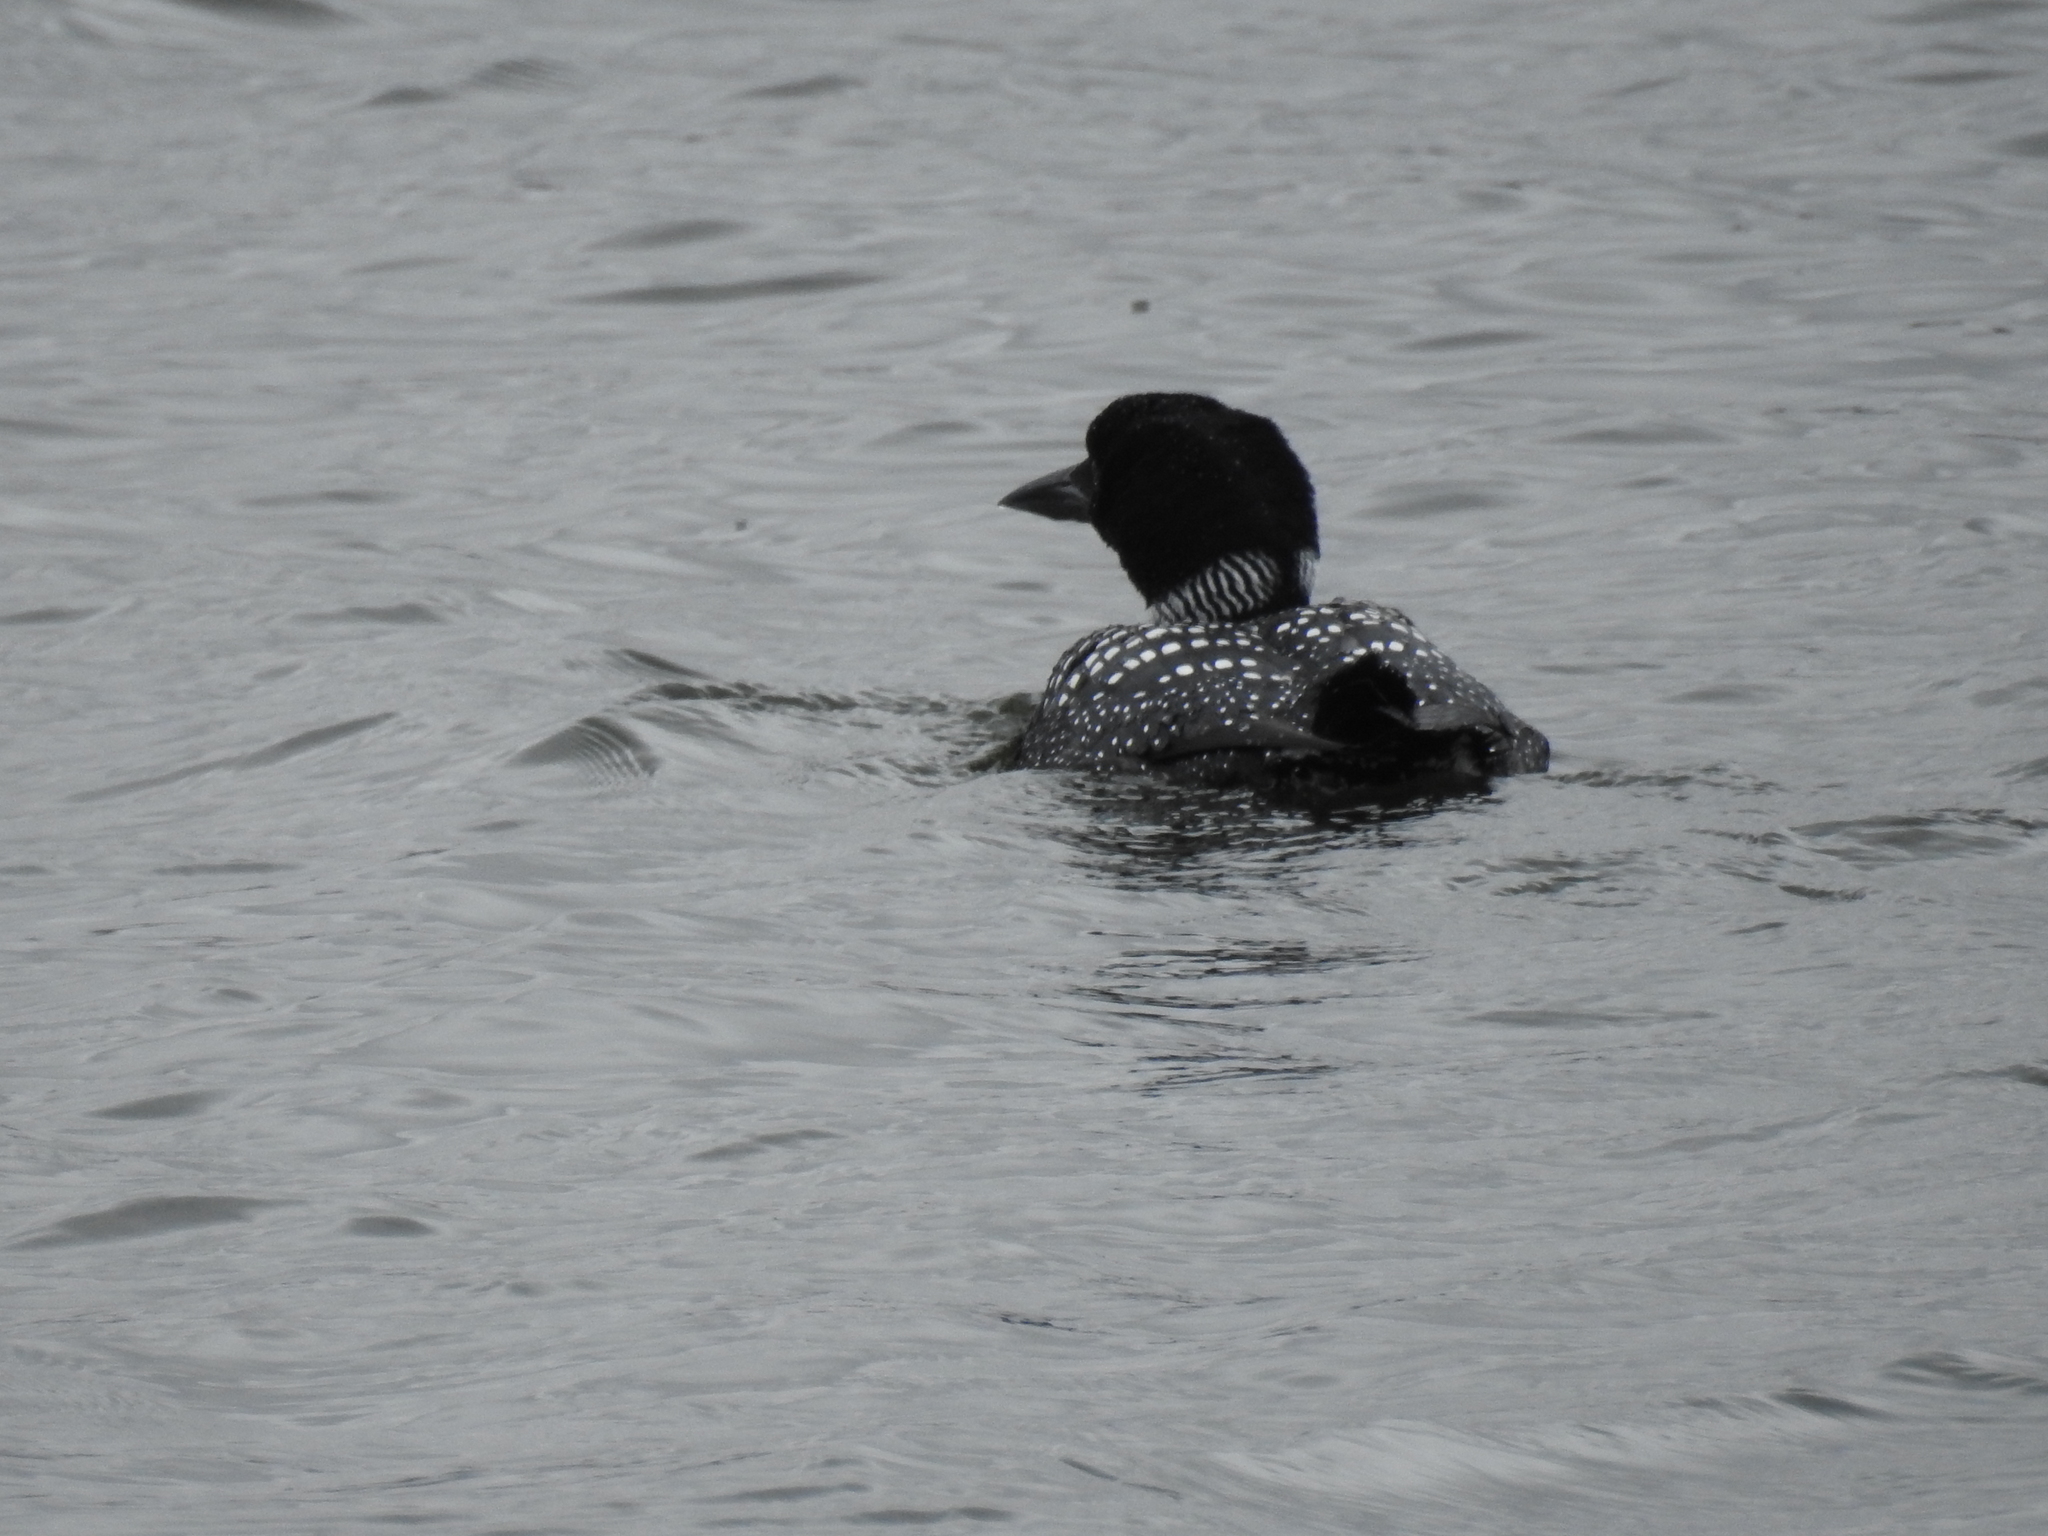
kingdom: Animalia
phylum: Chordata
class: Aves
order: Gaviiformes
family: Gaviidae
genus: Gavia
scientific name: Gavia immer
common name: Common loon
